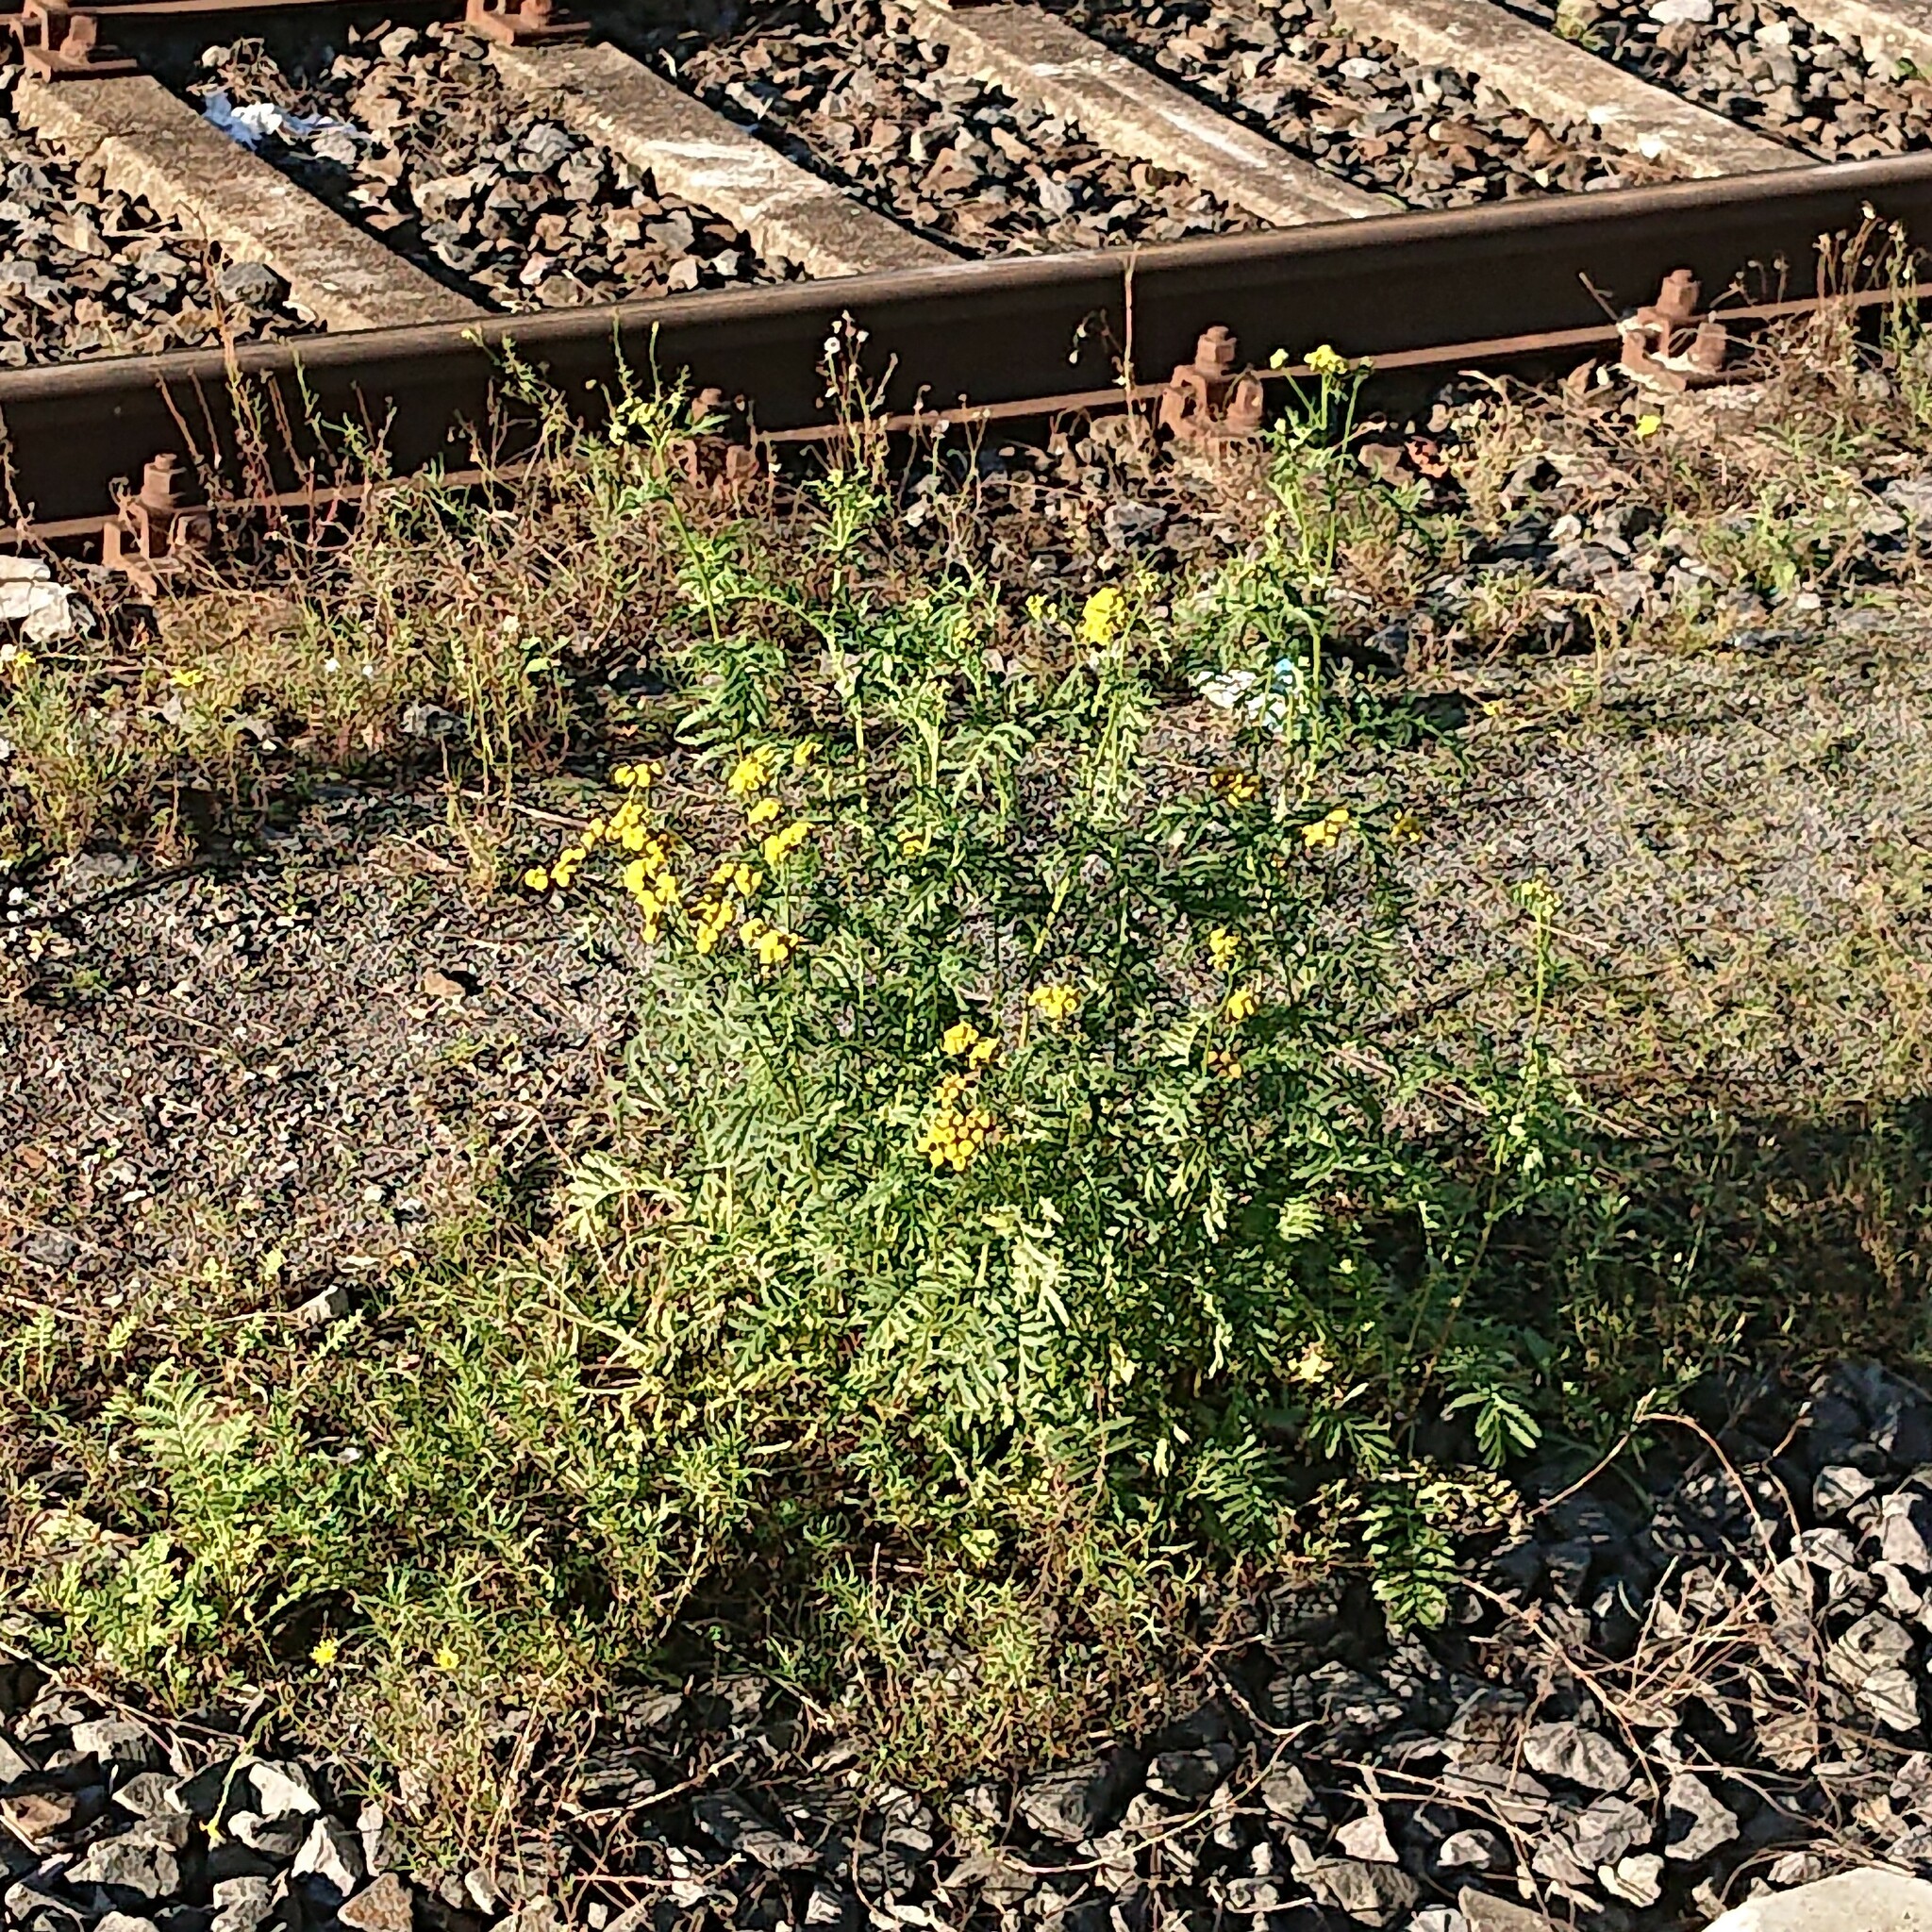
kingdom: Plantae
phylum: Tracheophyta
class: Magnoliopsida
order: Asterales
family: Asteraceae
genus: Tanacetum
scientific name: Tanacetum vulgare
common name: Common tansy
